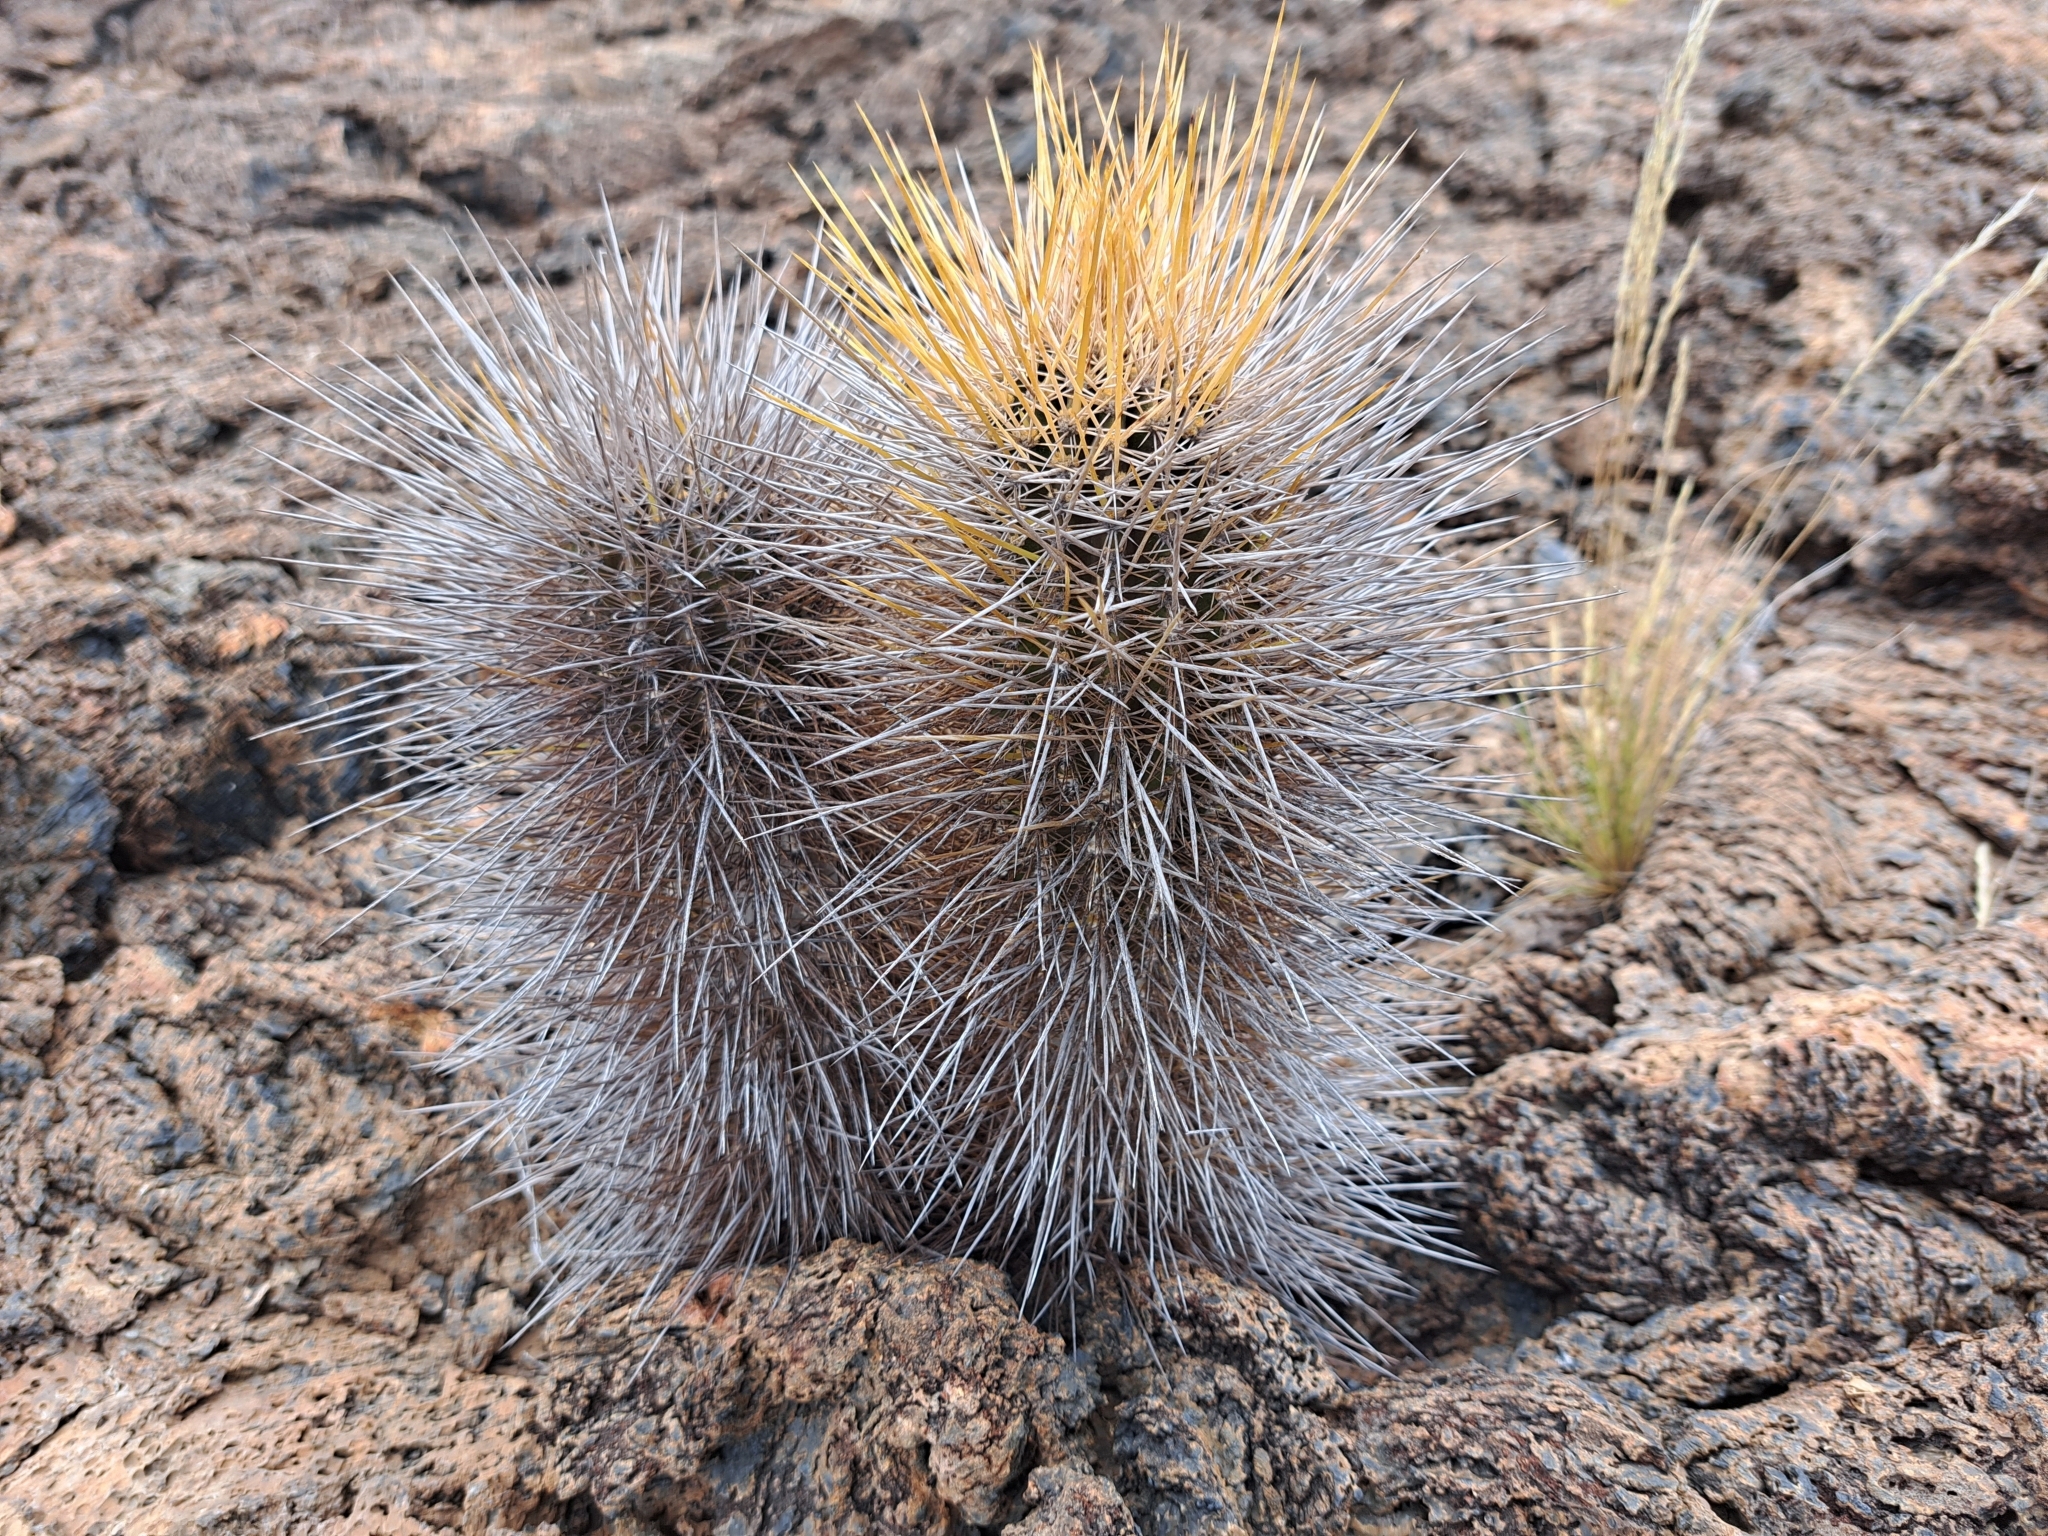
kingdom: Plantae
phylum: Tracheophyta
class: Magnoliopsida
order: Caryophyllales
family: Cactaceae
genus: Jasminocereus
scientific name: Jasminocereus thouarsii
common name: Candelabra cactus
